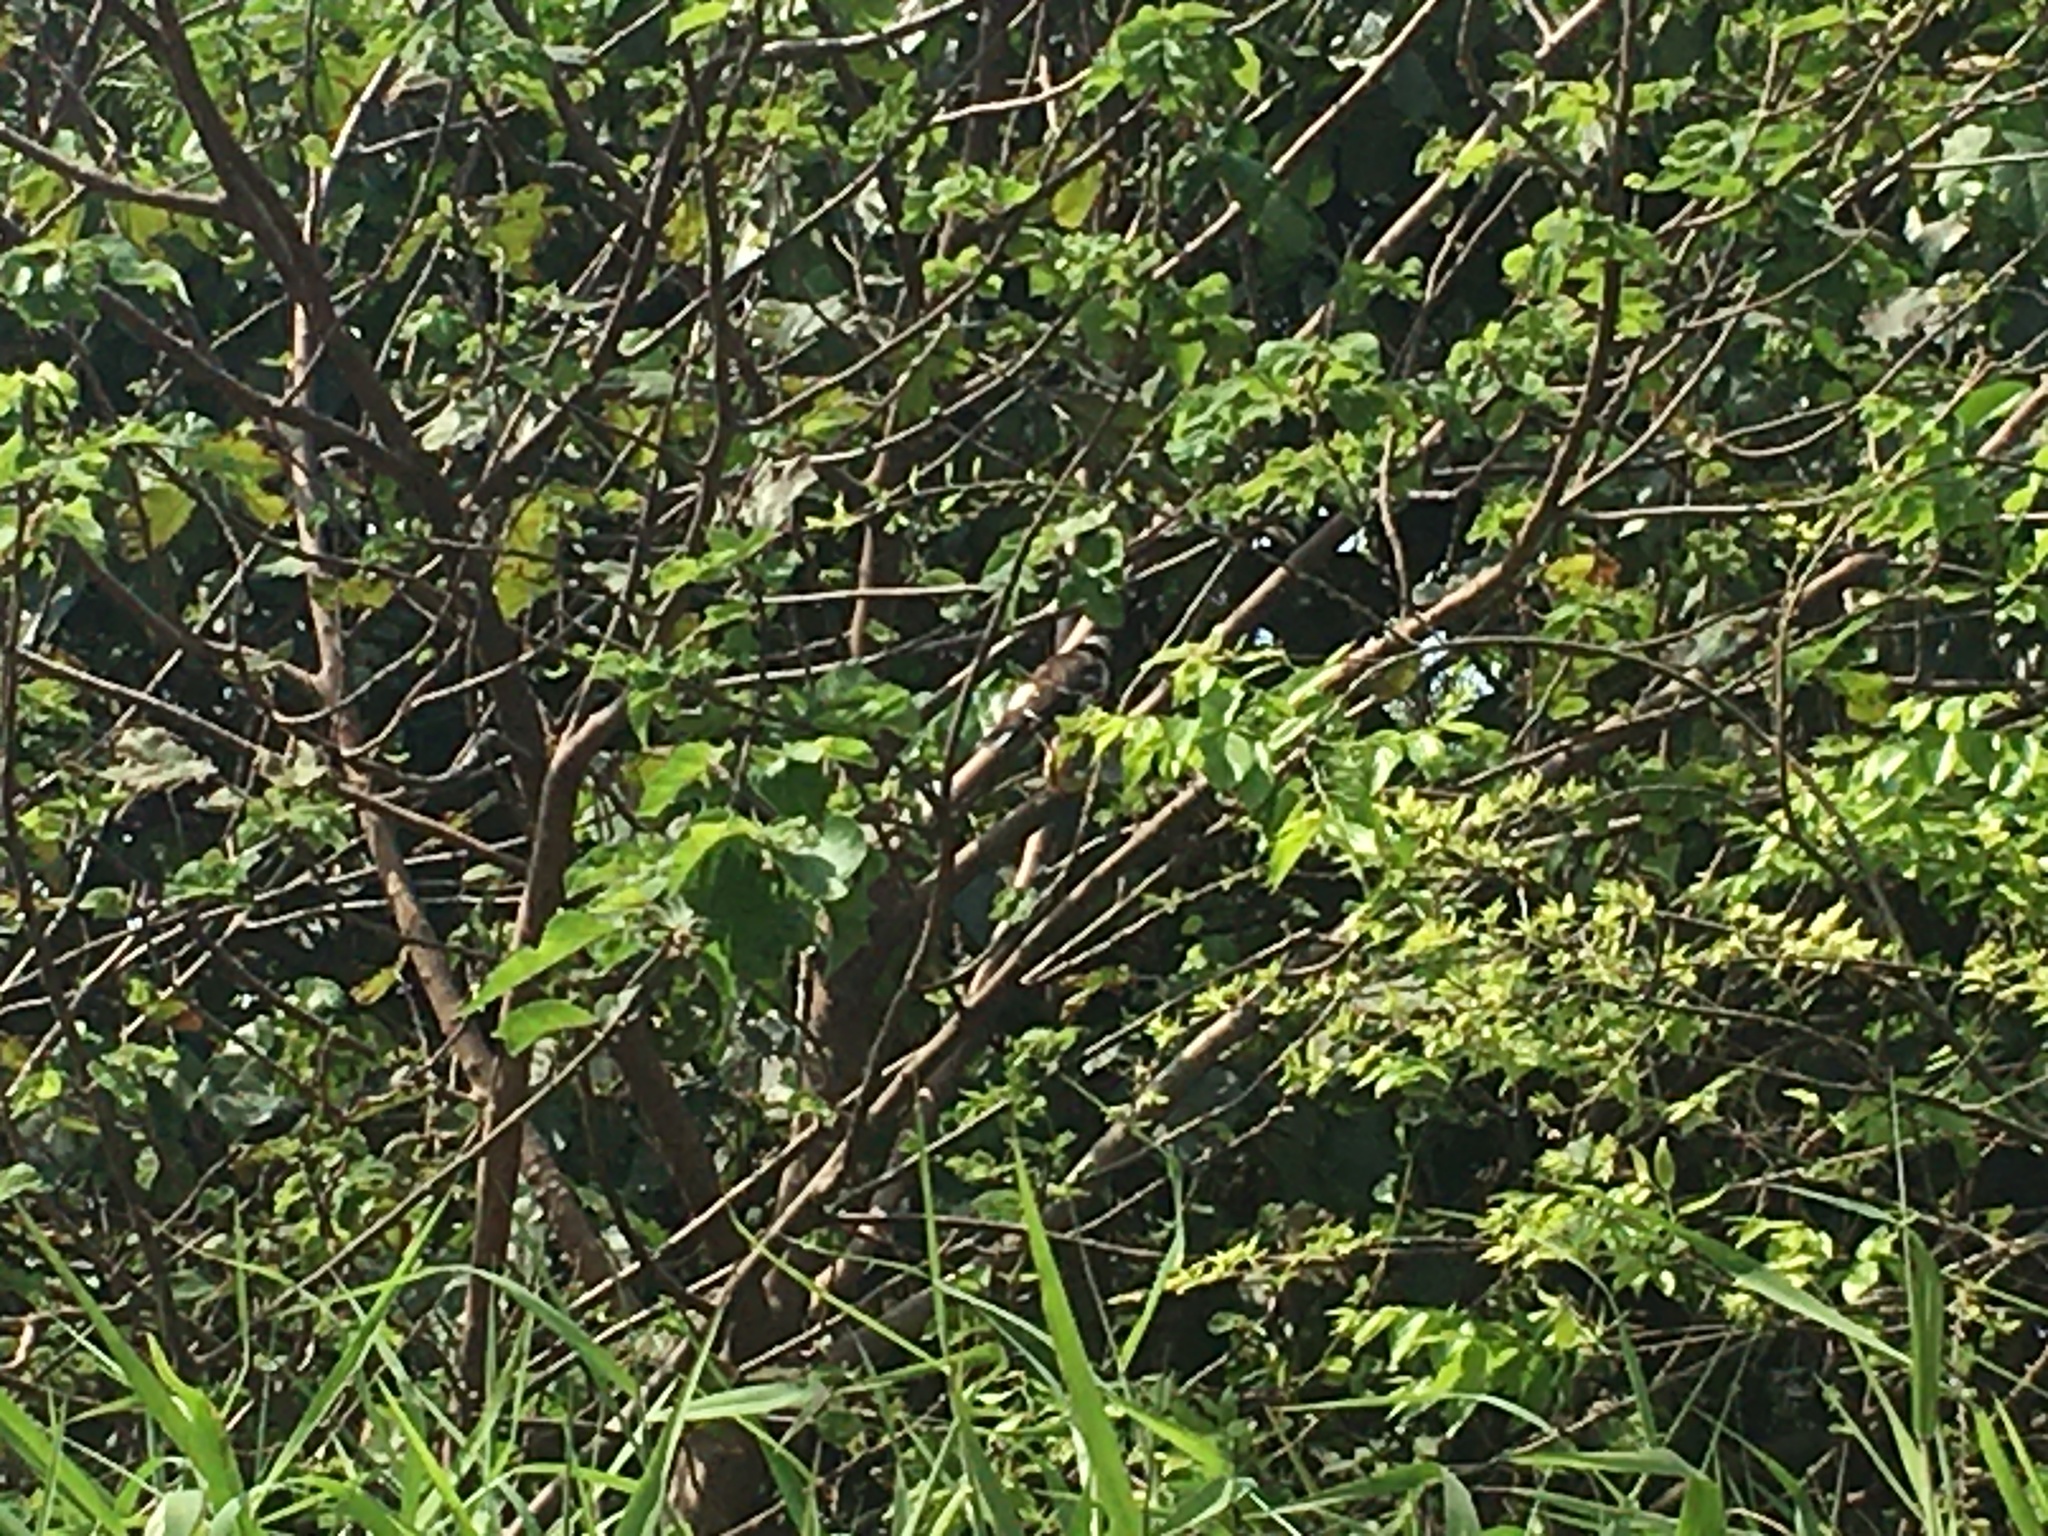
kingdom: Animalia
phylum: Chordata
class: Aves
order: Passeriformes
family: Sturnidae
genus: Gracupica
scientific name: Gracupica nigricollis
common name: Black-collared starling
